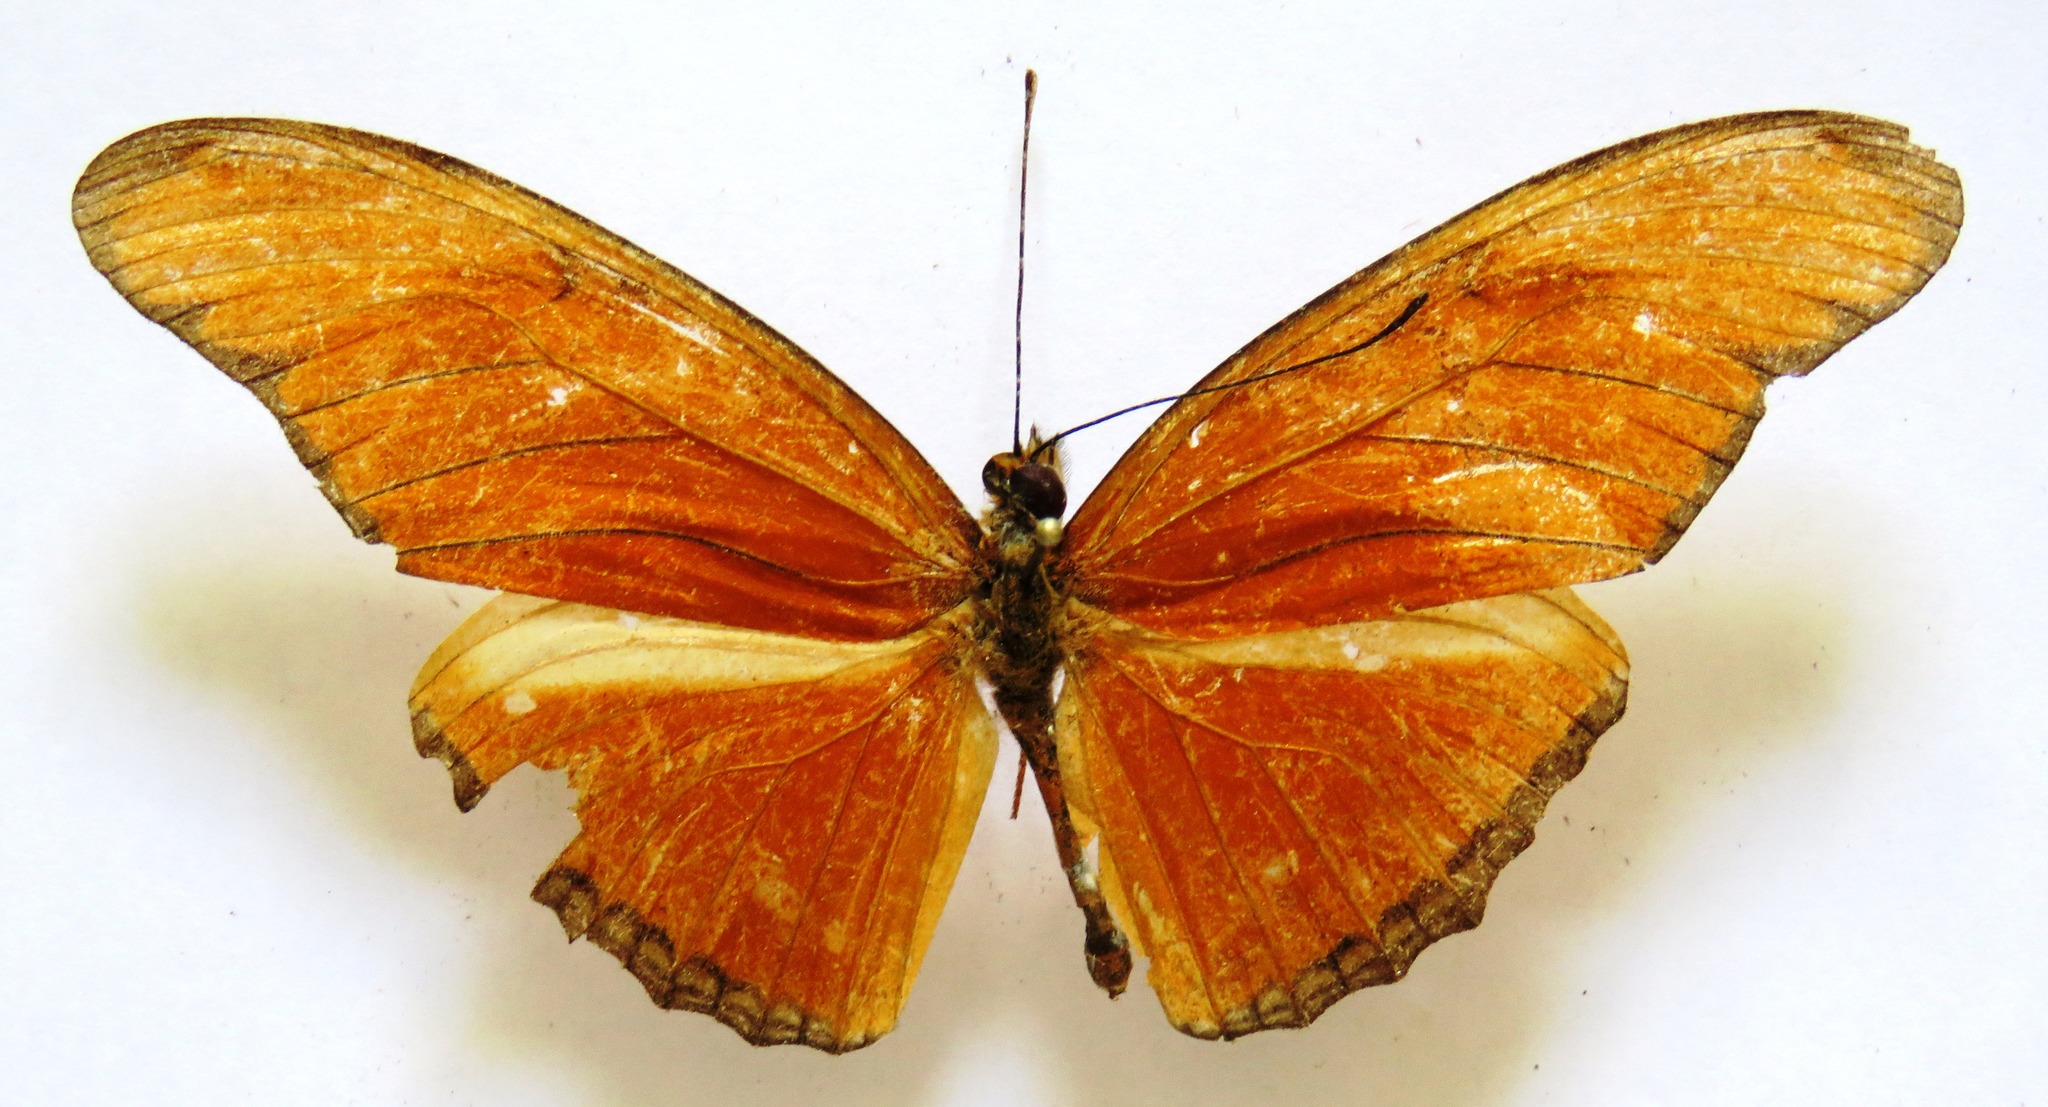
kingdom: Animalia
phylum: Arthropoda
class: Insecta
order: Lepidoptera
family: Nymphalidae
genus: Dryas
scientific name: Dryas iulia
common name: Flambeau
